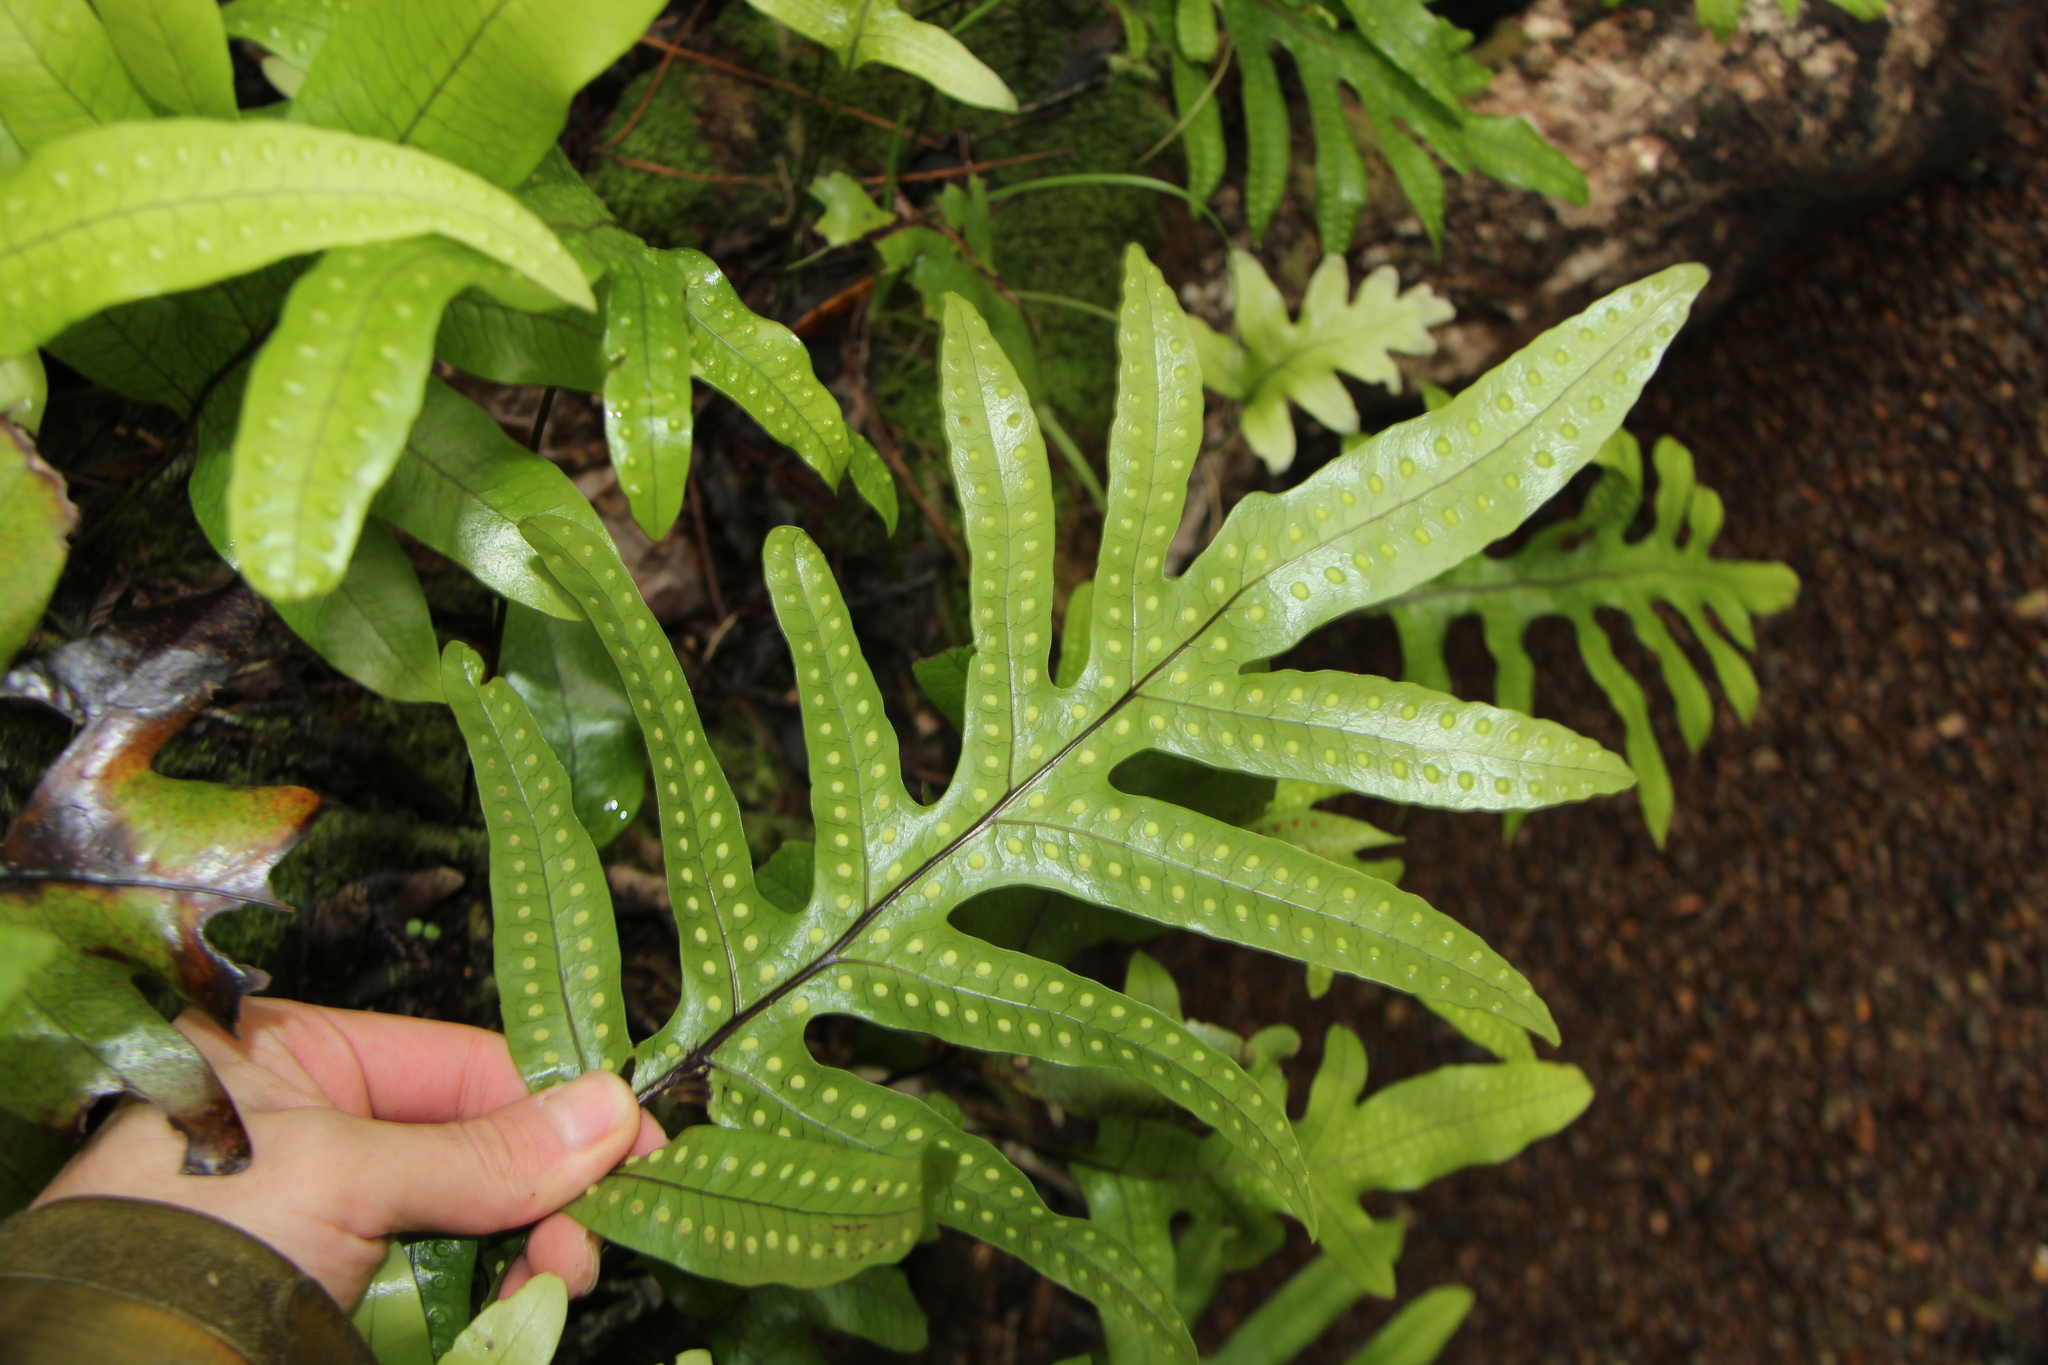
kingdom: Plantae
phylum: Tracheophyta
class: Polypodiopsida
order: Polypodiales
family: Polypodiaceae
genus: Lecanopteris
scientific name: Lecanopteris pustulata
